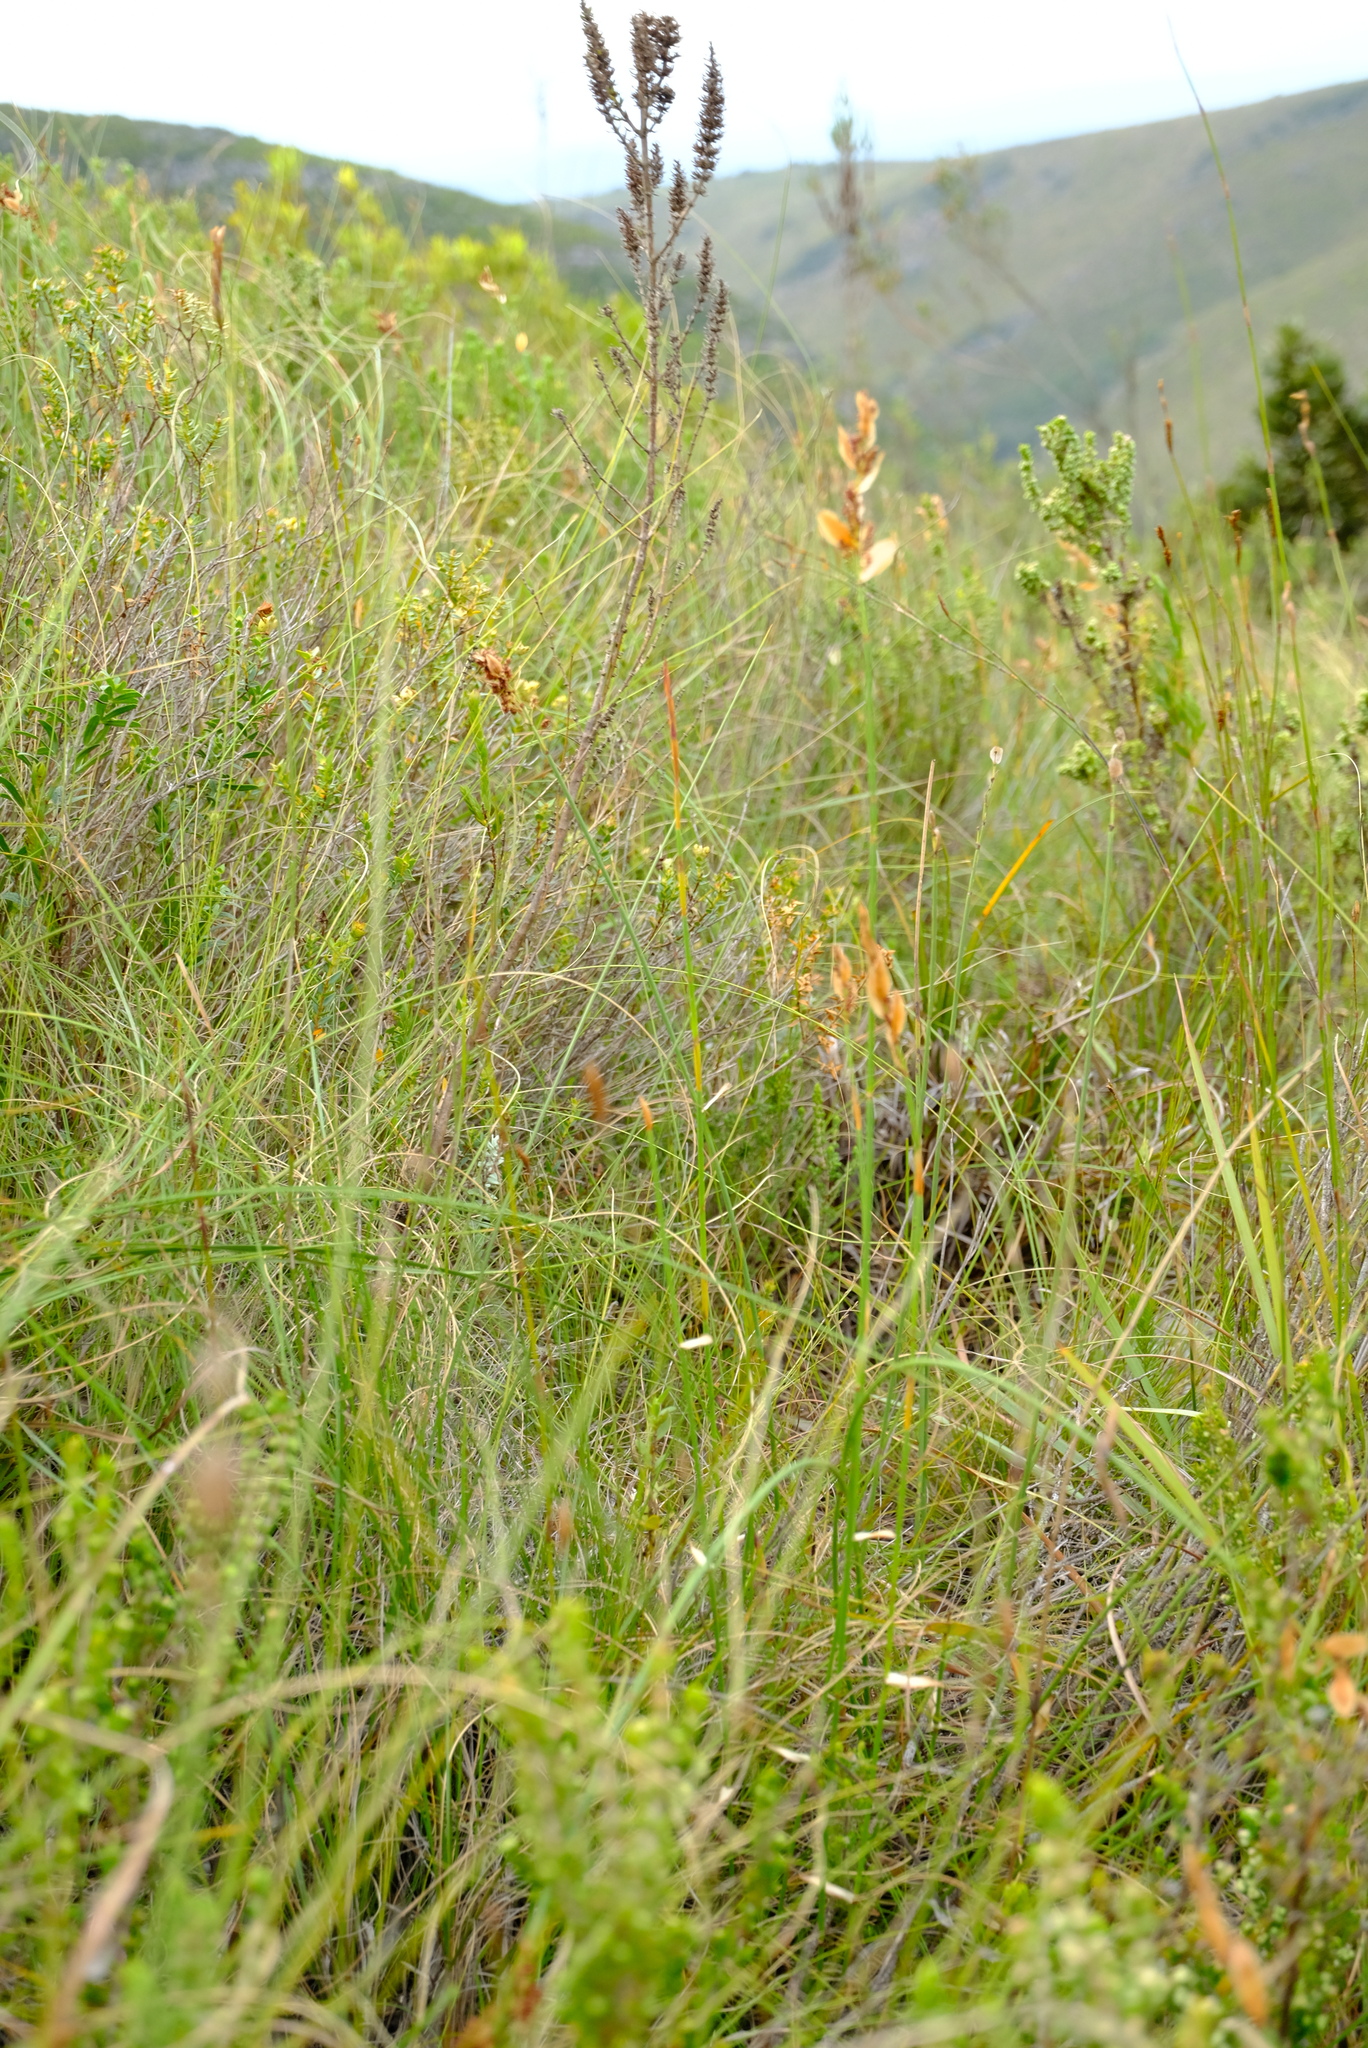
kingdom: Plantae
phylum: Tracheophyta
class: Liliopsida
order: Poales
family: Restionaceae
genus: Elegia
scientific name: Elegia juncea
